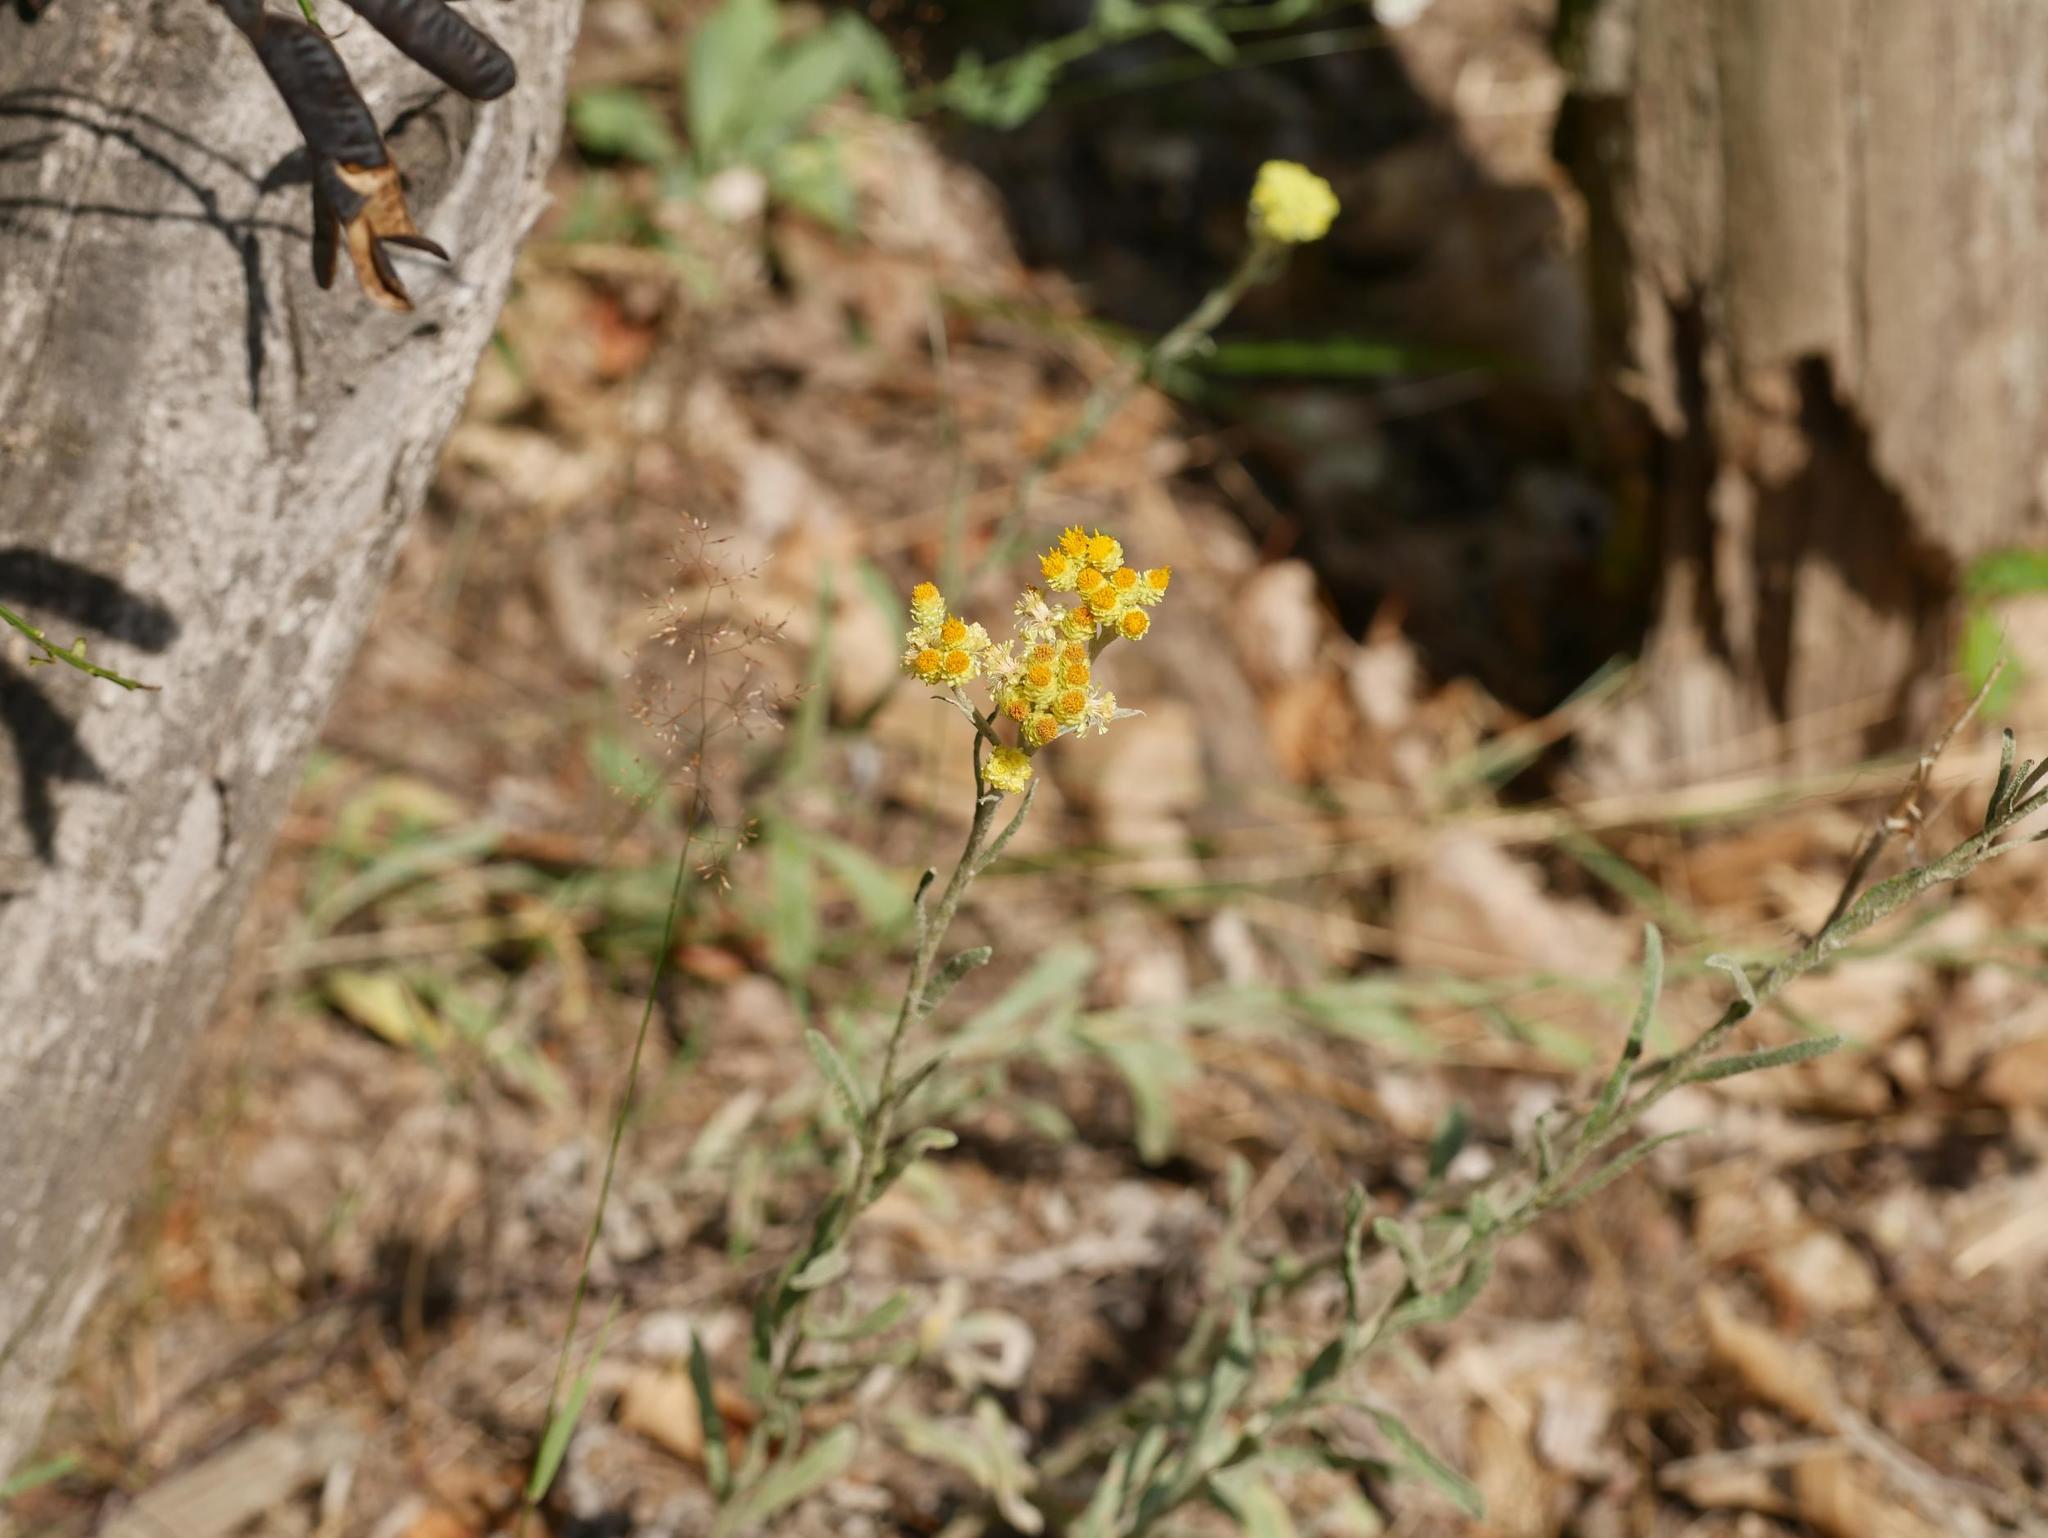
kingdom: Plantae
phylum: Tracheophyta
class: Magnoliopsida
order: Asterales
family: Asteraceae
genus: Helichrysum
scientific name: Helichrysum arenarium
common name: Strawflower
